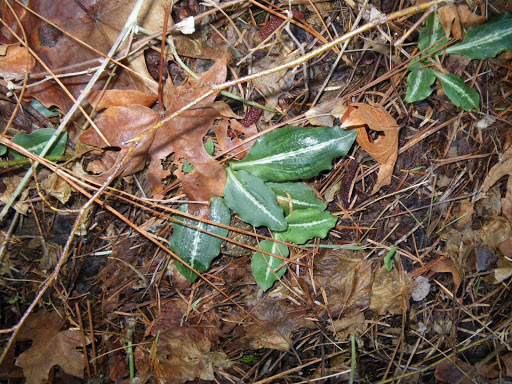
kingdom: Plantae
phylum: Tracheophyta
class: Liliopsida
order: Asparagales
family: Orchidaceae
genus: Goodyera
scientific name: Goodyera oblongifolia
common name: Giant rattlesnake-plantain
